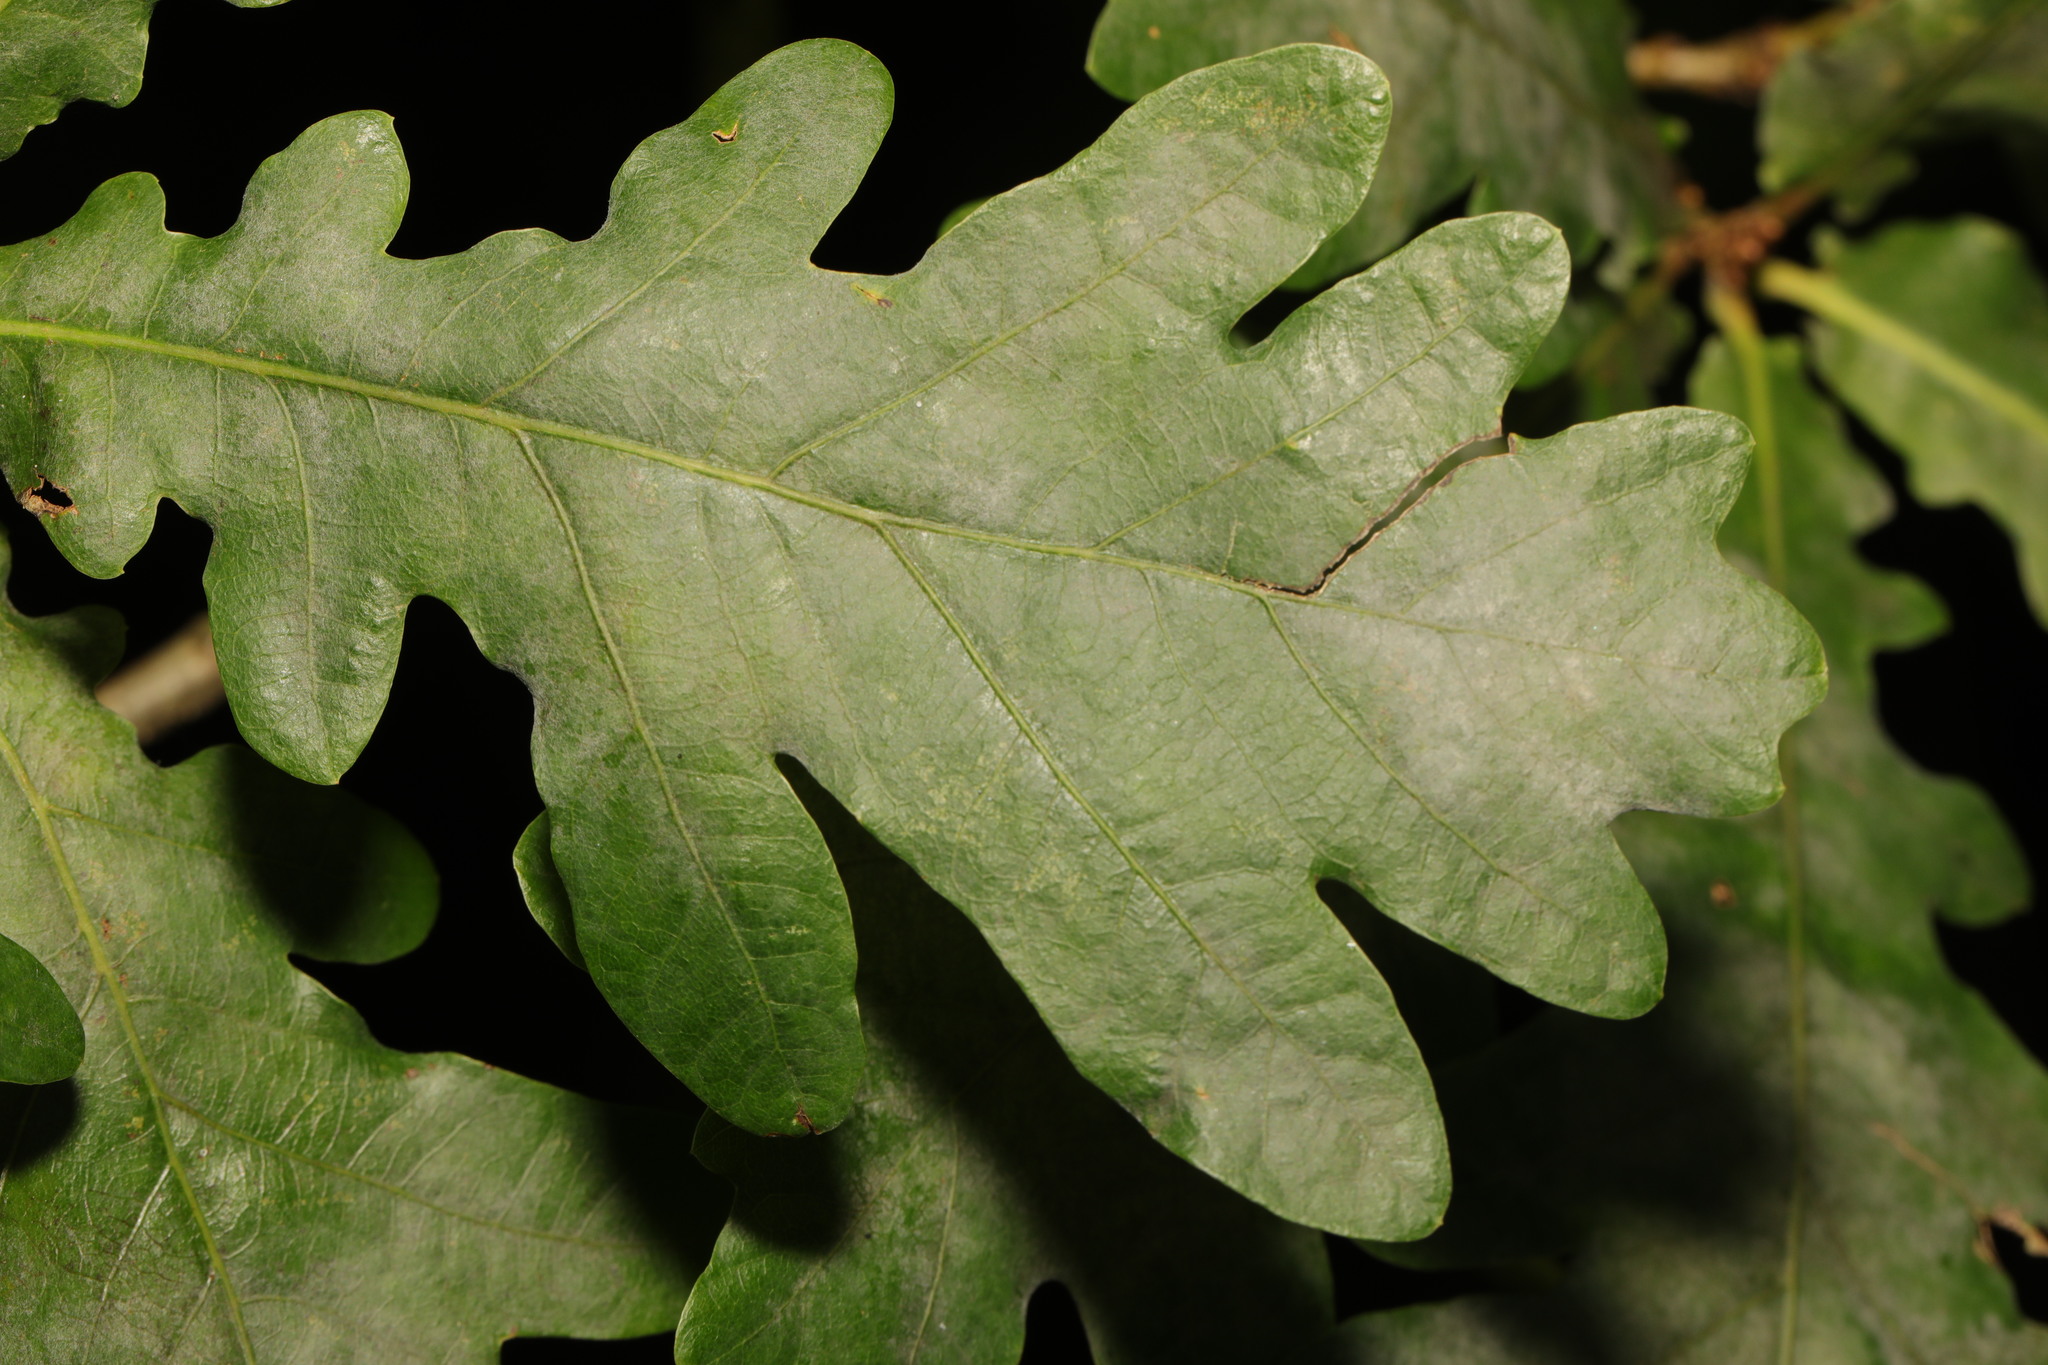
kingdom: Fungi
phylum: Ascomycota
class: Leotiomycetes
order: Helotiales
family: Erysiphaceae
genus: Erysiphe
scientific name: Erysiphe alphitoides
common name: Oak mildew
